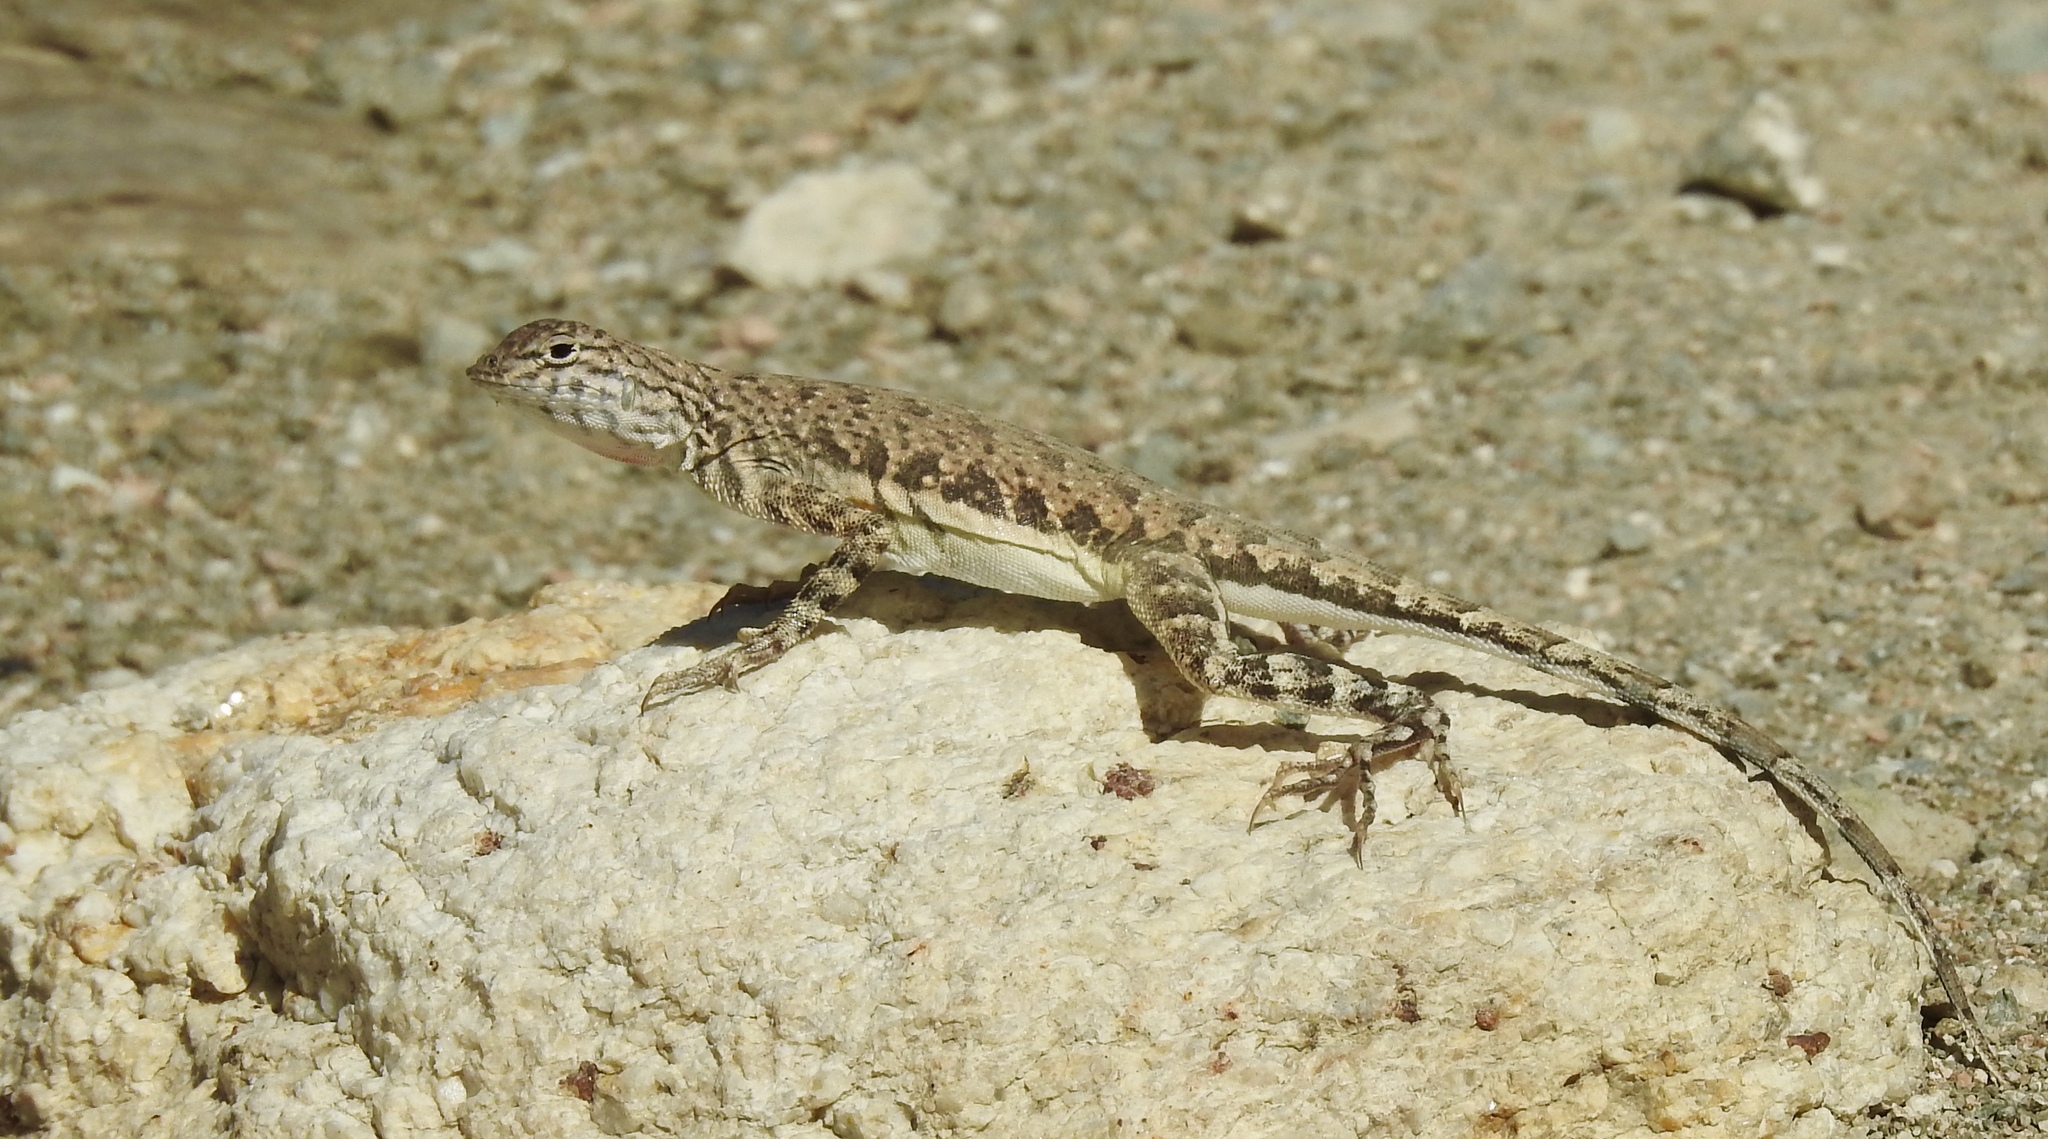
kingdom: Animalia
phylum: Chordata
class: Squamata
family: Phrynosomatidae
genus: Callisaurus
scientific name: Callisaurus draconoides
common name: Zebra-tailed lizard
